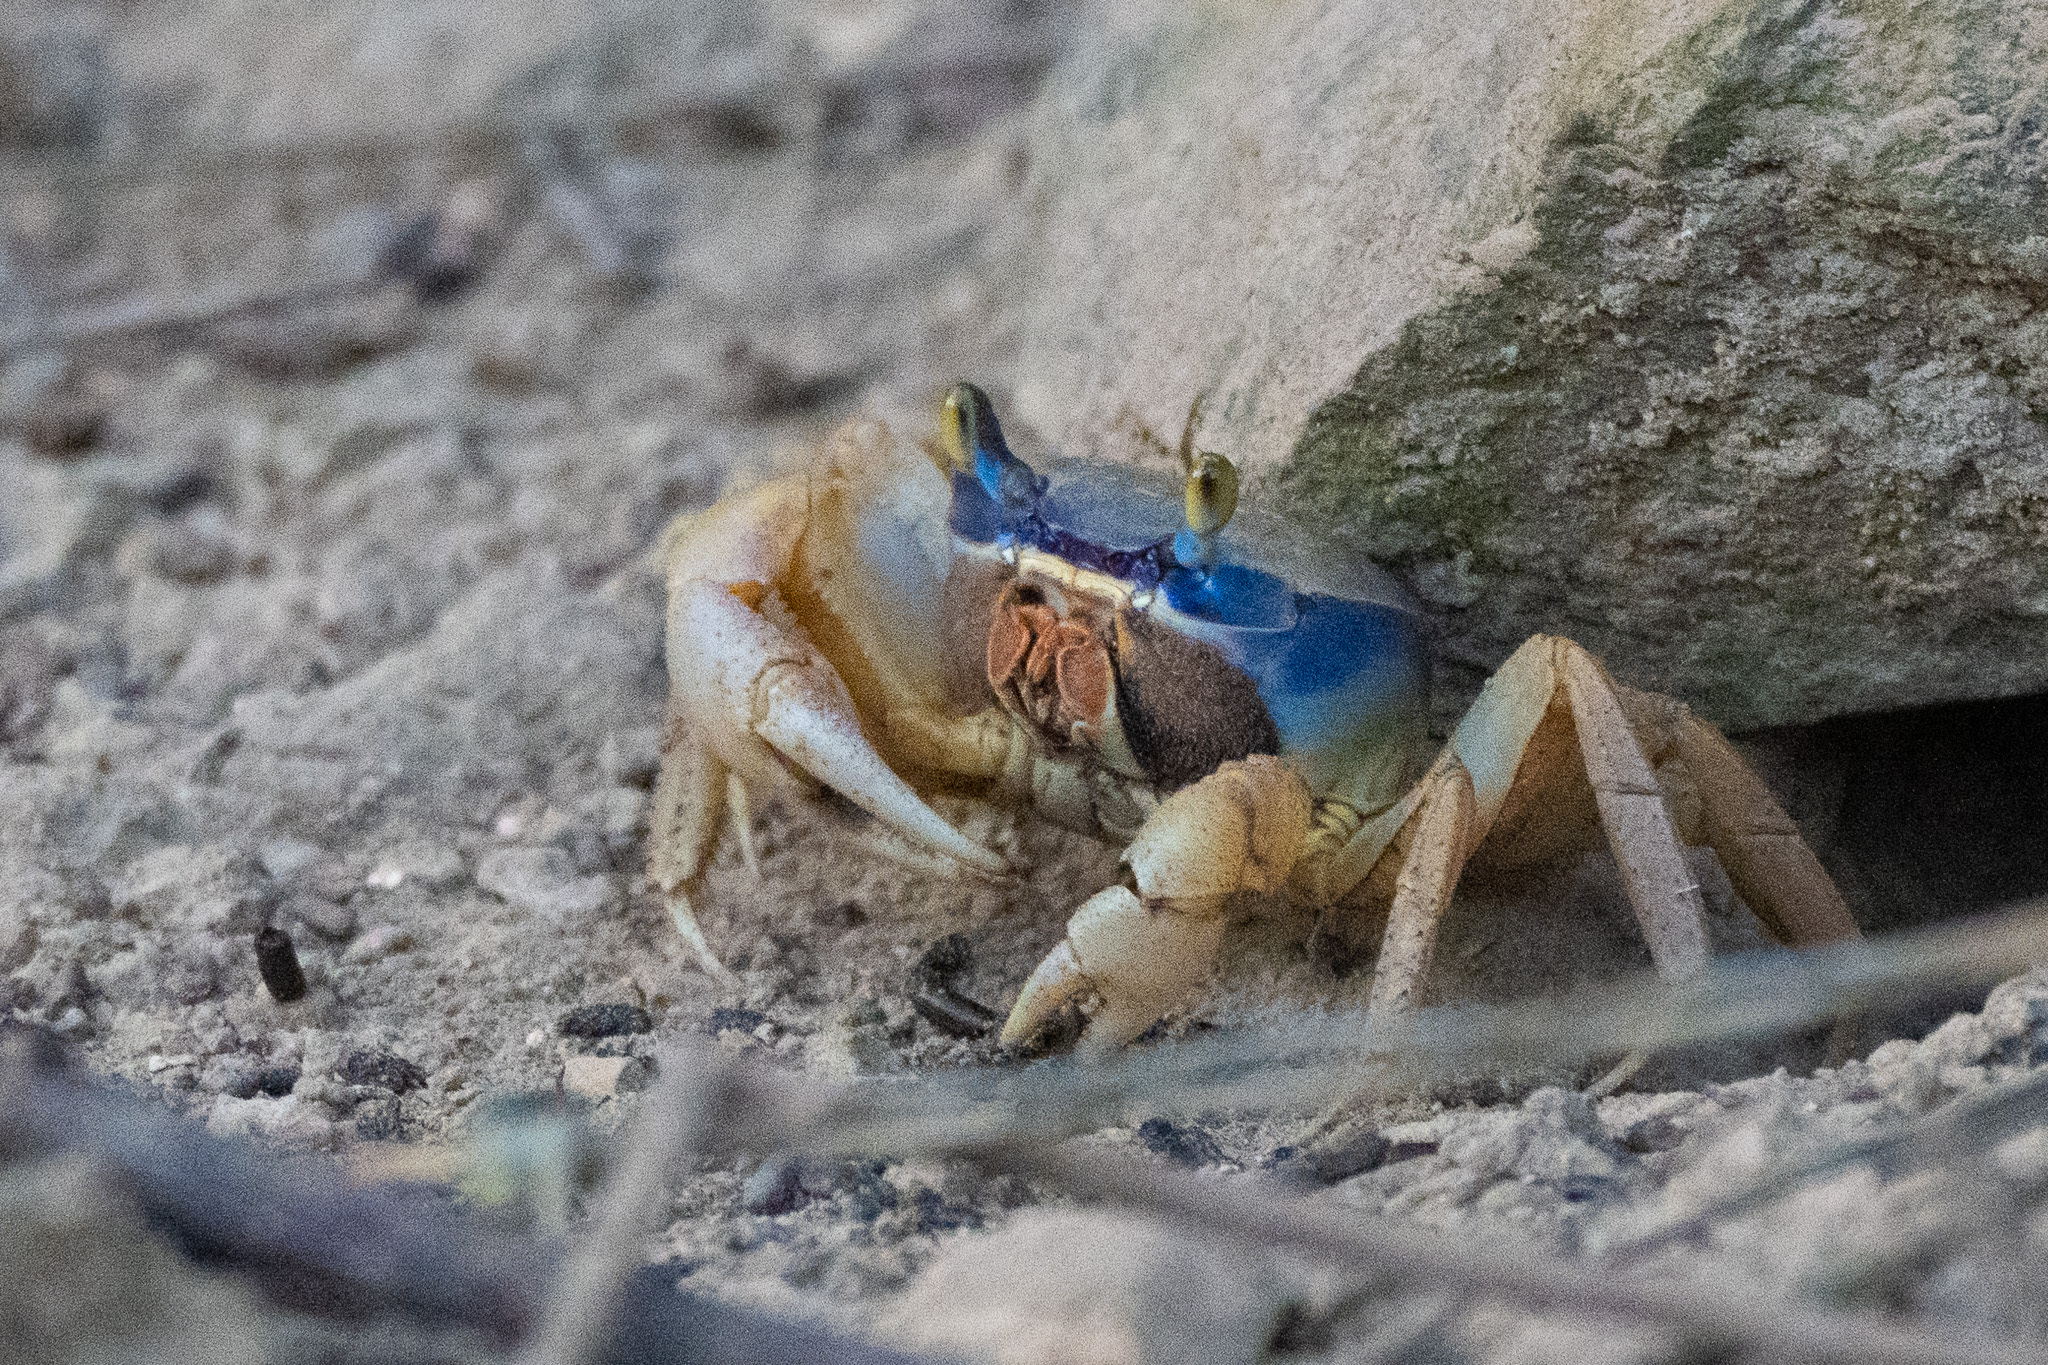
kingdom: Animalia
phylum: Arthropoda
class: Malacostraca
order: Decapoda
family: Gecarcinidae
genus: Cardisoma
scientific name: Cardisoma guanhumi
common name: Great land crab
